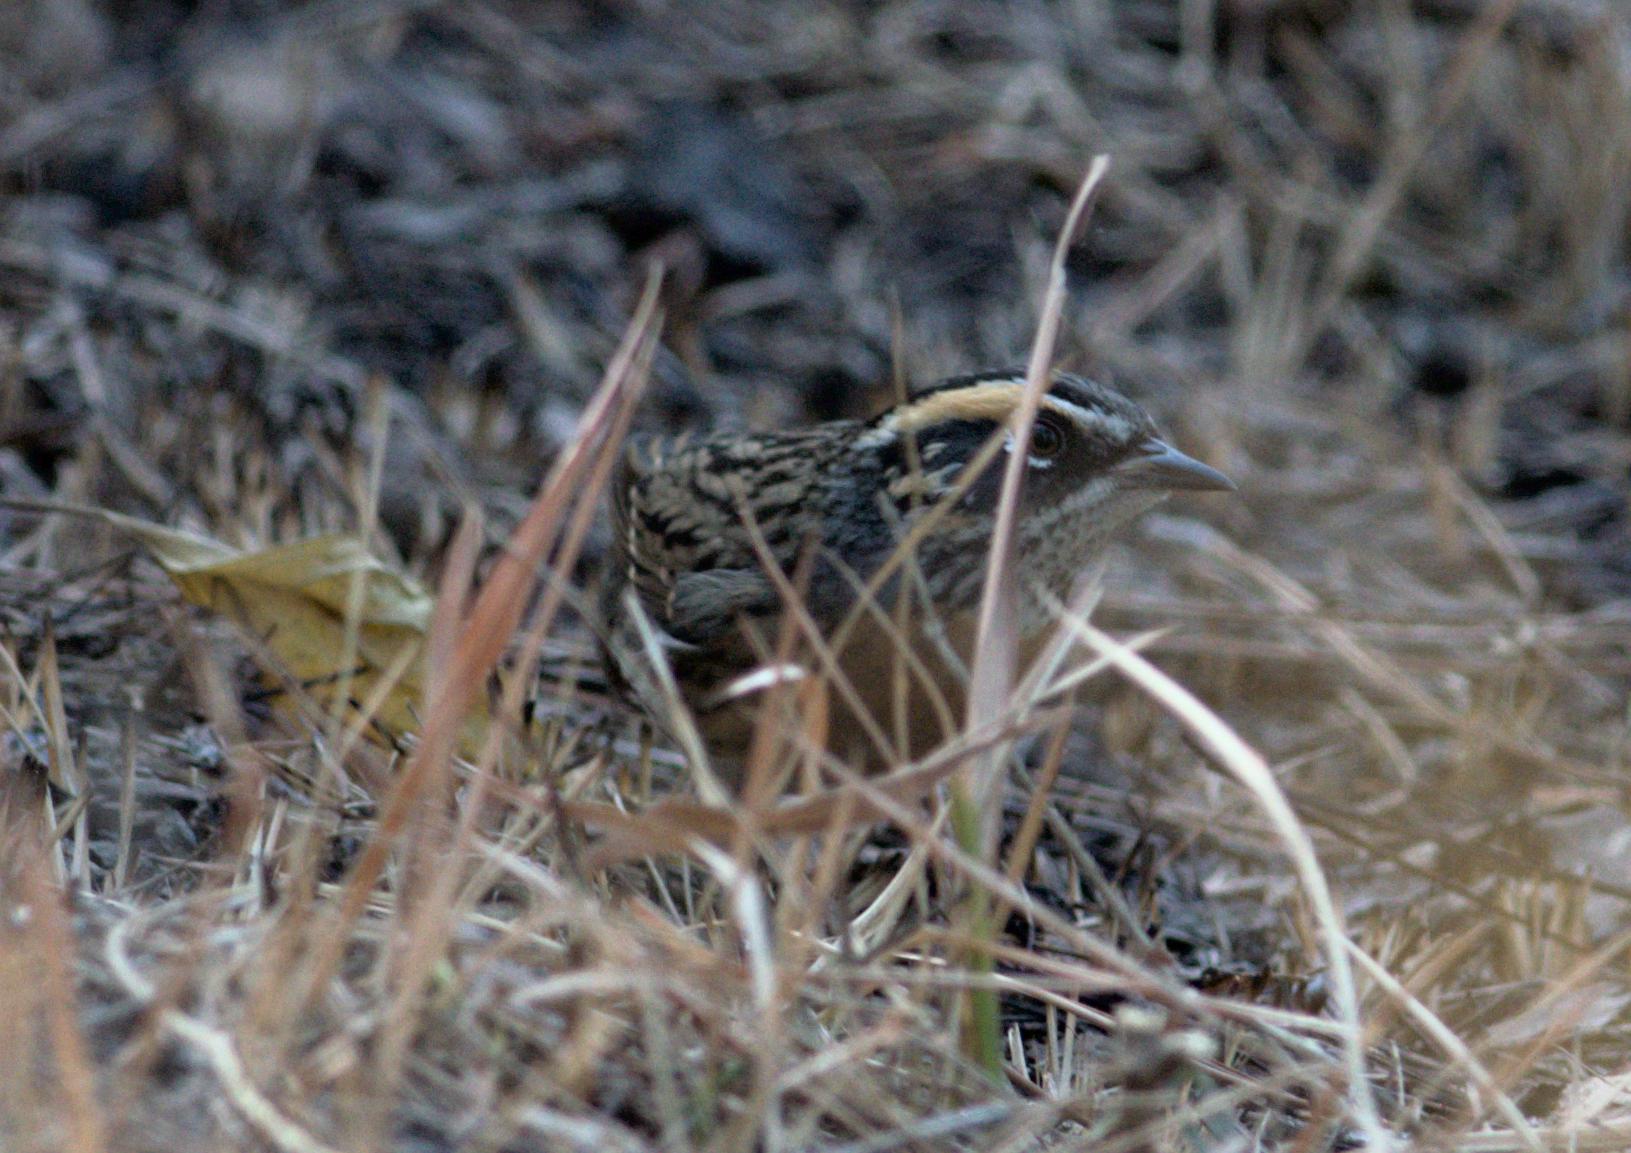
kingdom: Animalia
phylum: Chordata
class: Aves
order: Passeriformes
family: Prunellidae
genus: Prunella
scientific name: Prunella strophiata
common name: Rufous-breasted accentor
